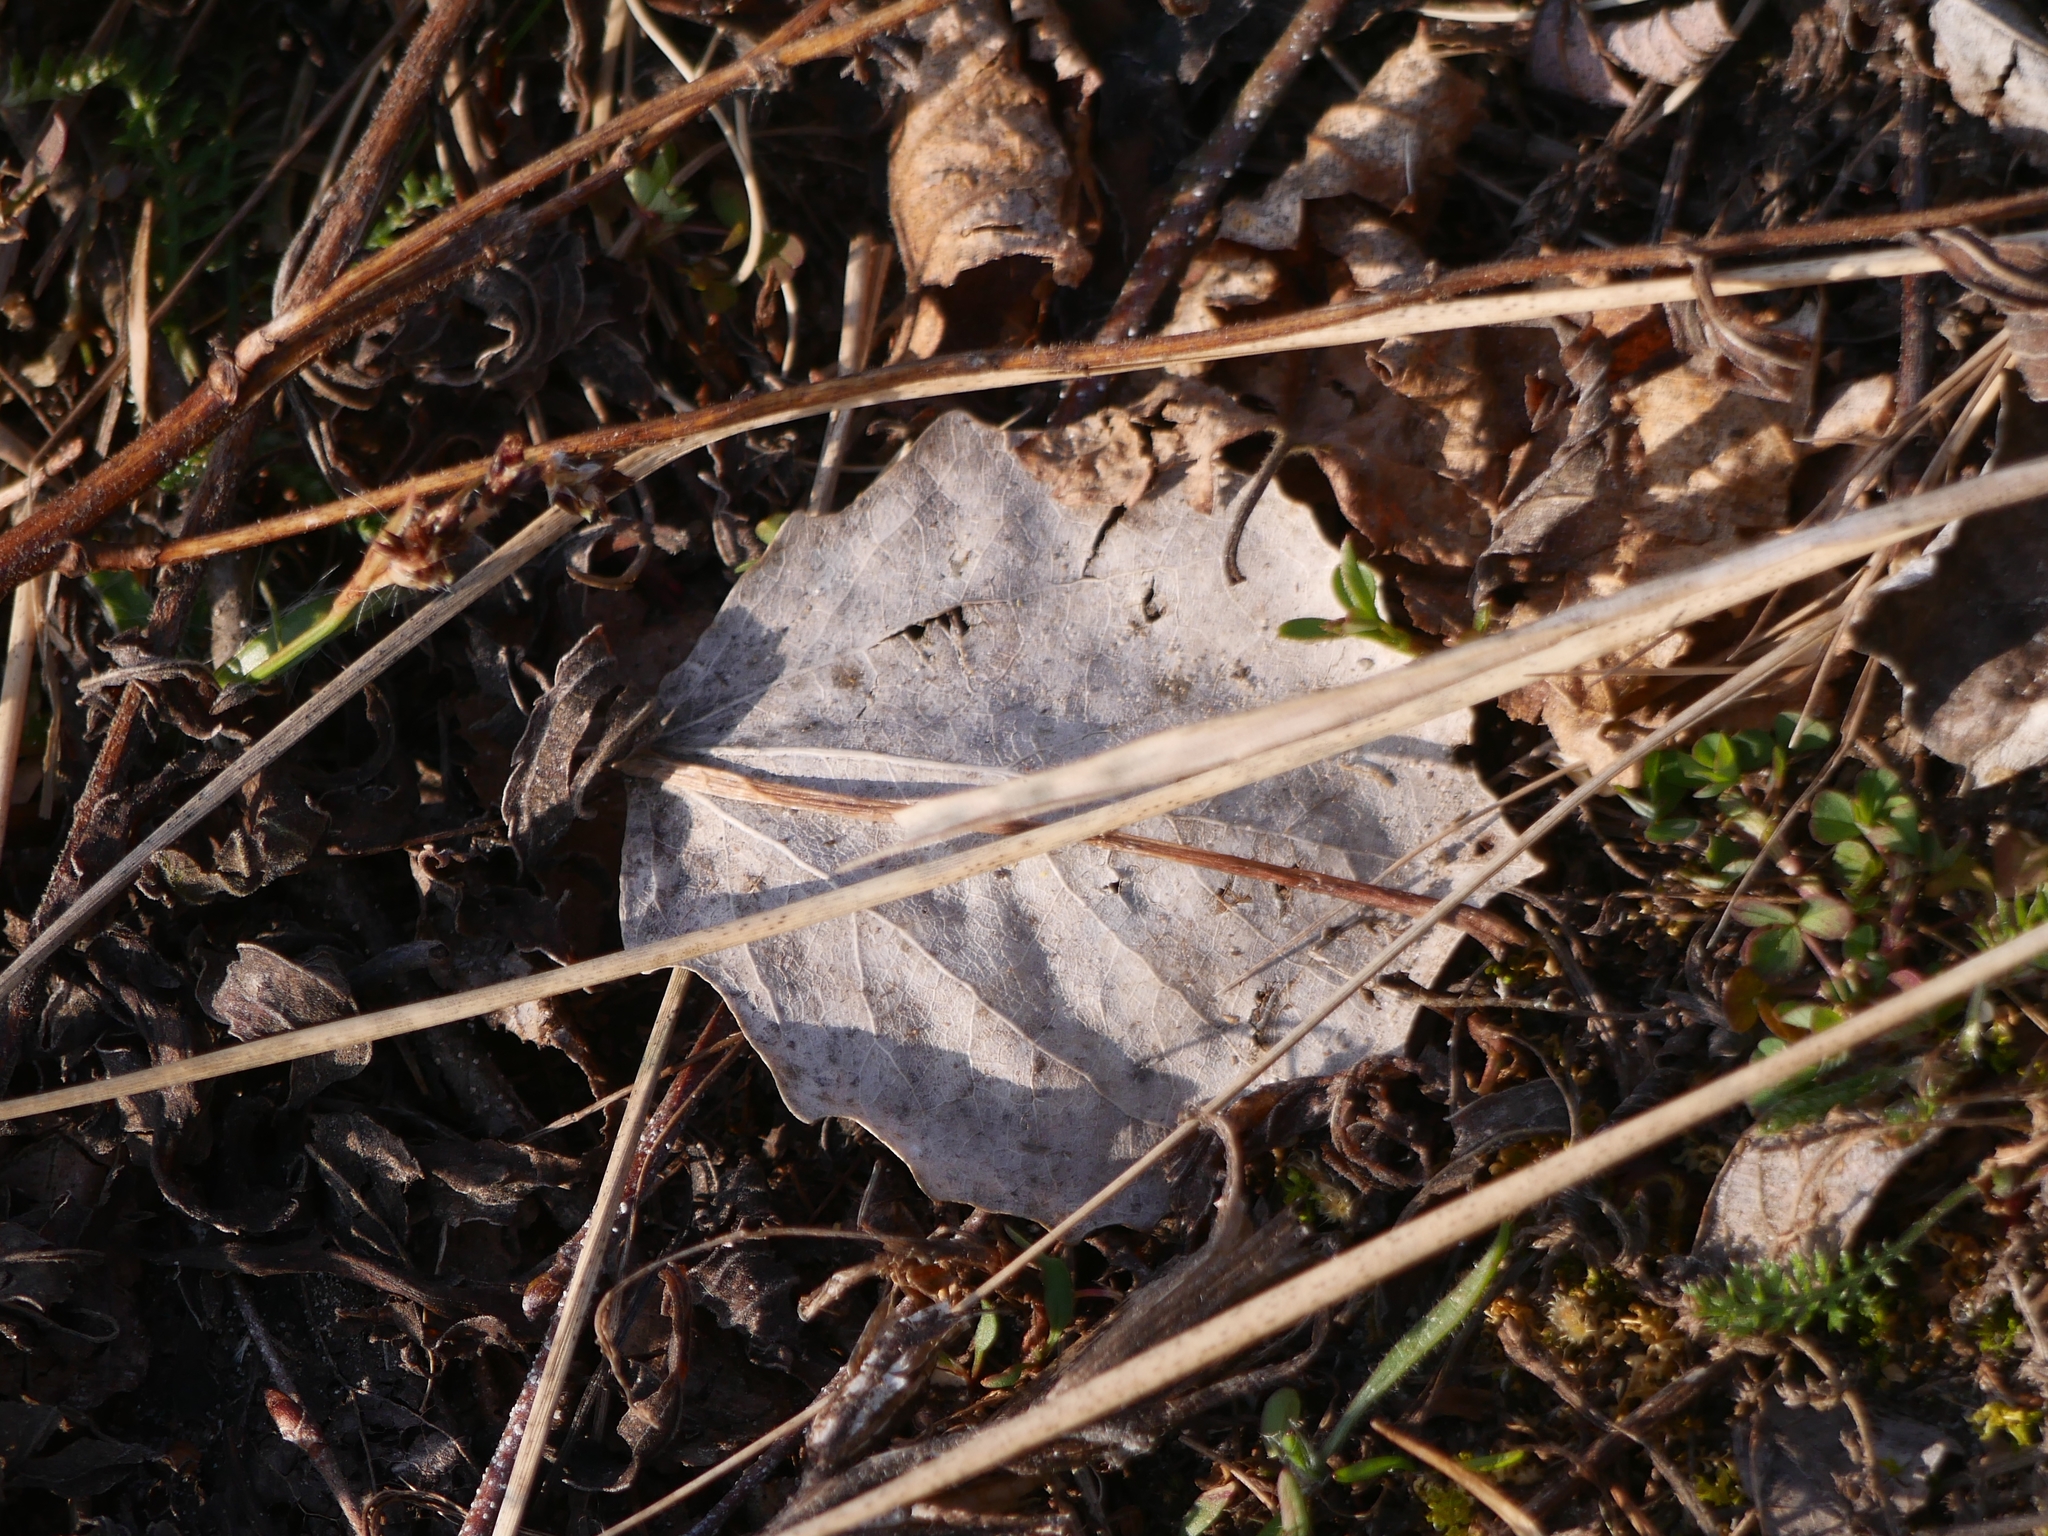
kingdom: Plantae
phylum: Tracheophyta
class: Magnoliopsida
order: Malpighiales
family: Salicaceae
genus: Populus
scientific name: Populus tremula
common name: European aspen
